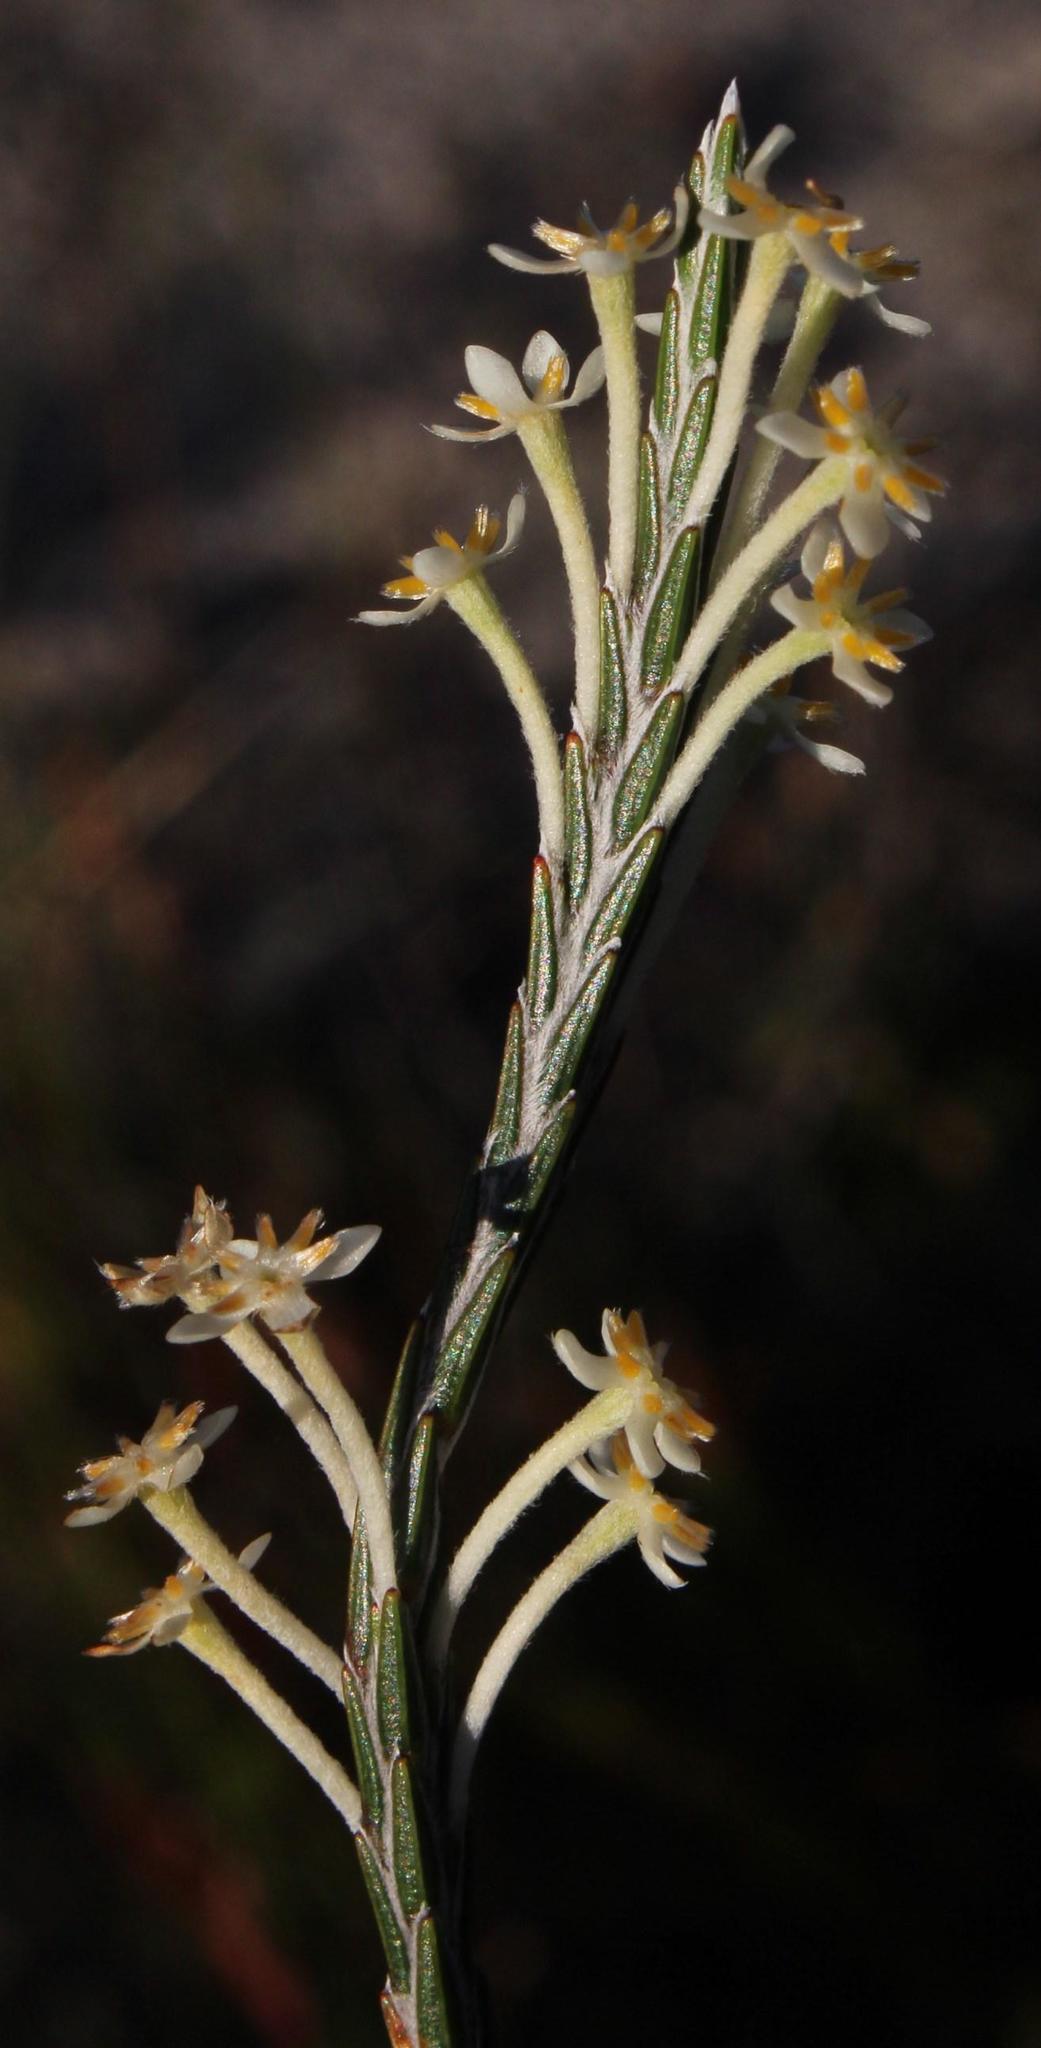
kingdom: Plantae
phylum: Tracheophyta
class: Magnoliopsida
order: Malvales
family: Thymelaeaceae
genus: Struthiola
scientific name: Struthiola ciliata
